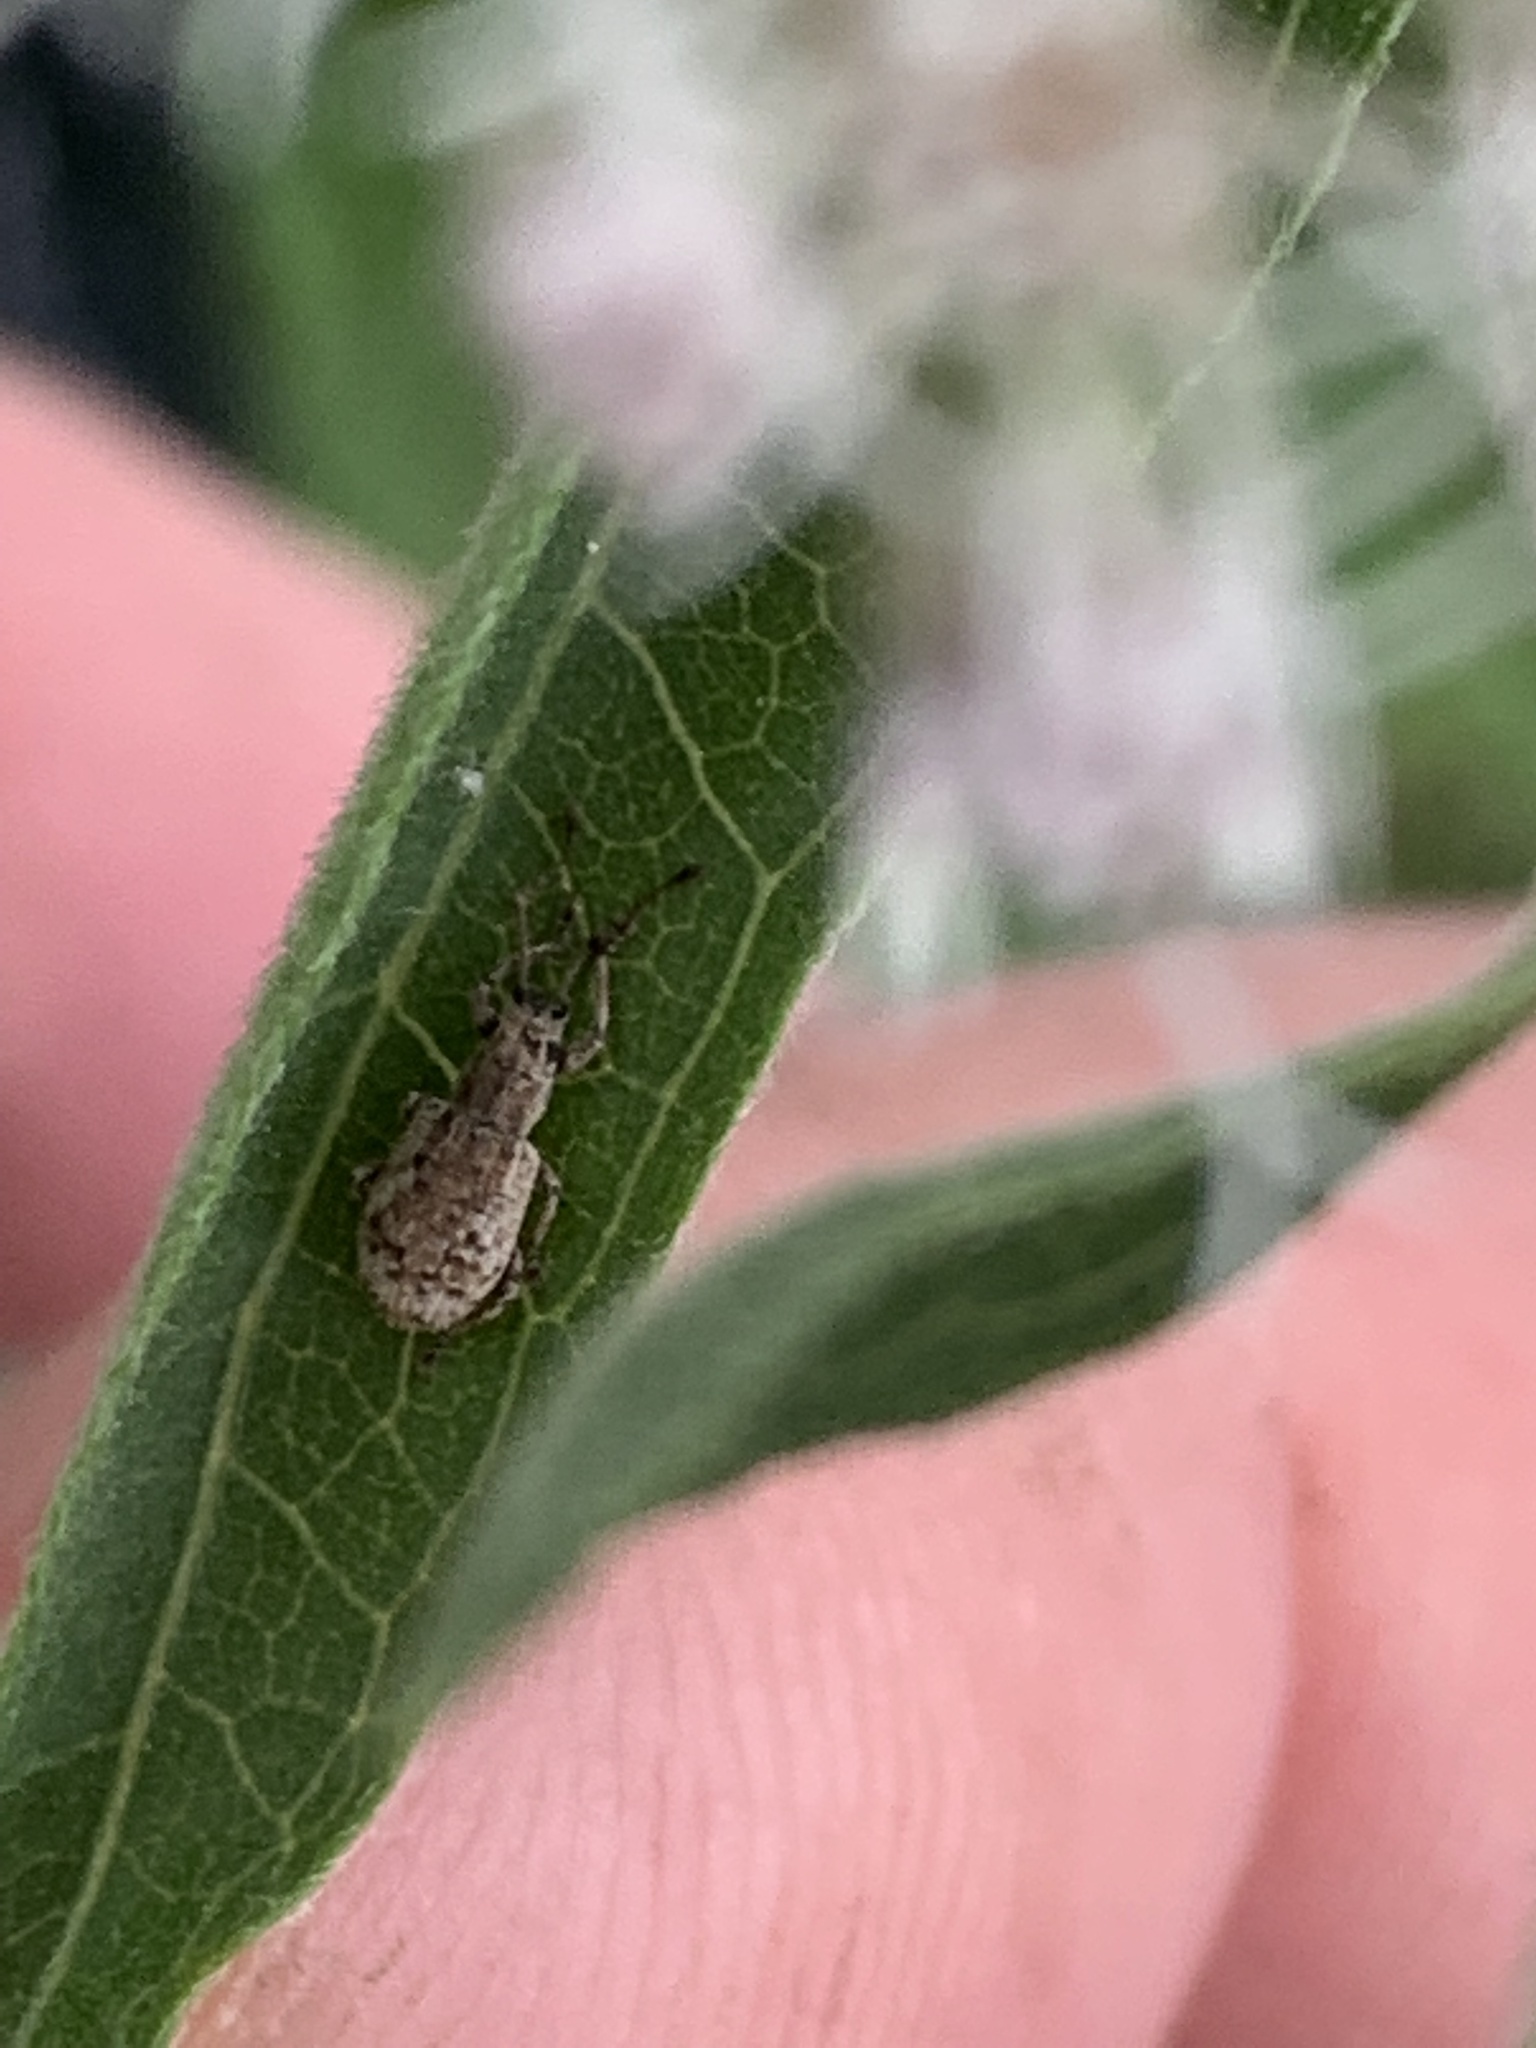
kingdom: Animalia
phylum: Arthropoda
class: Insecta
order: Coleoptera
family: Curculionidae
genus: Pseudoedophrys
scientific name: Pseudoedophrys hilleri
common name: Weevil
